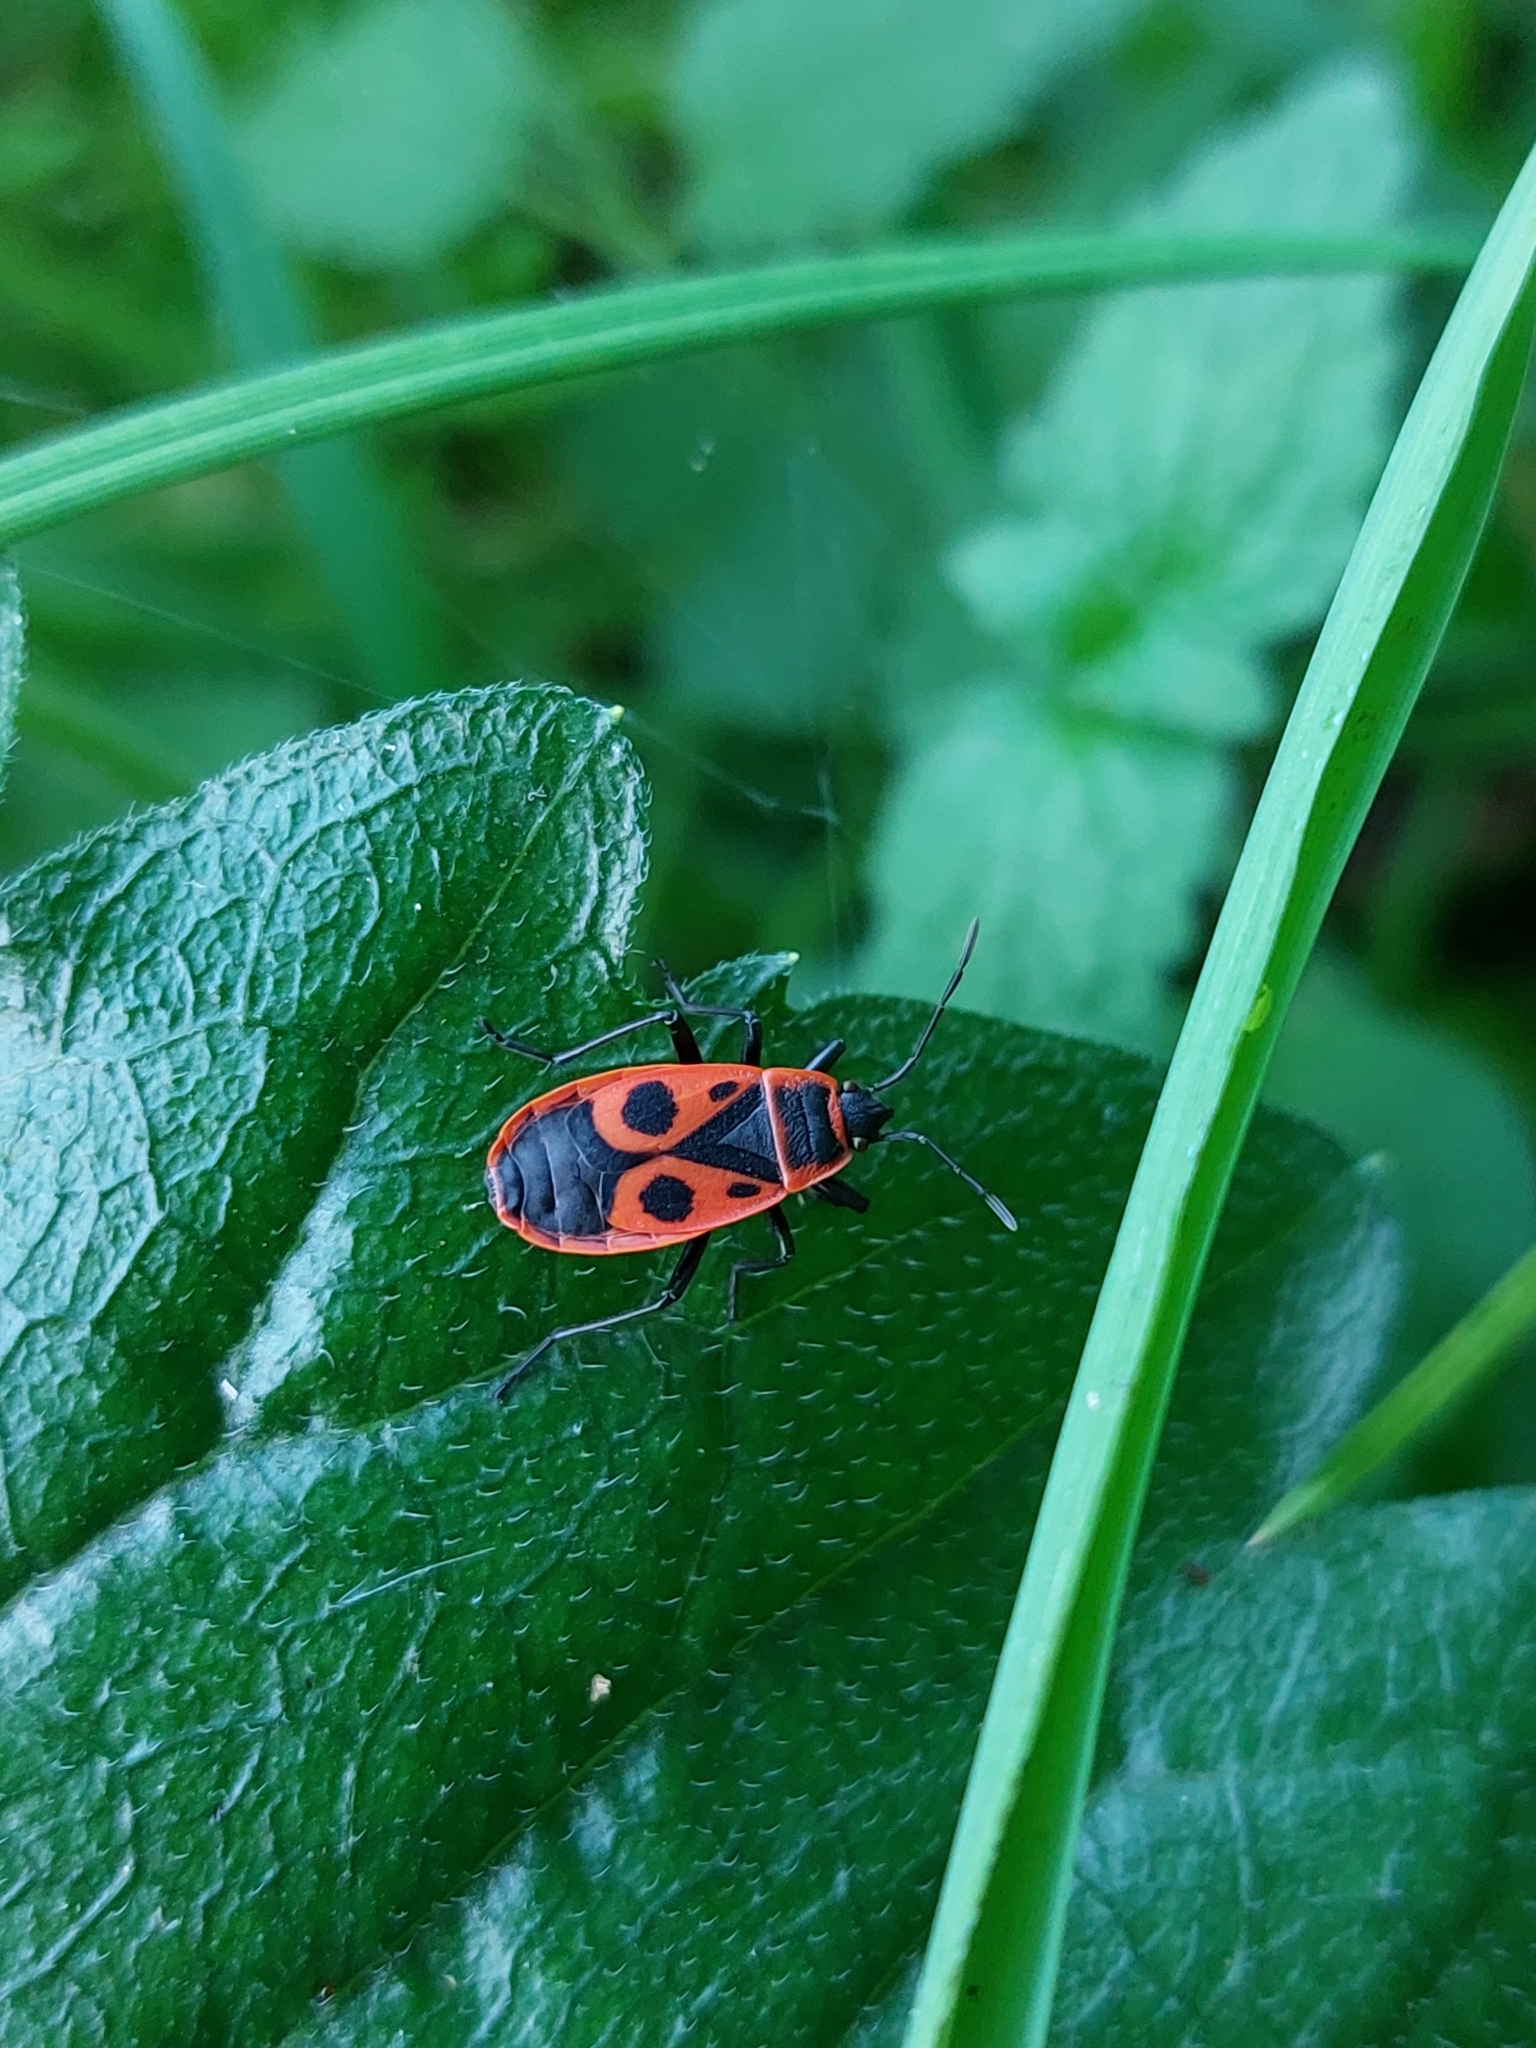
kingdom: Animalia
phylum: Arthropoda
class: Insecta
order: Hemiptera
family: Pyrrhocoridae
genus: Pyrrhocoris
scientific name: Pyrrhocoris apterus
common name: Firebug
